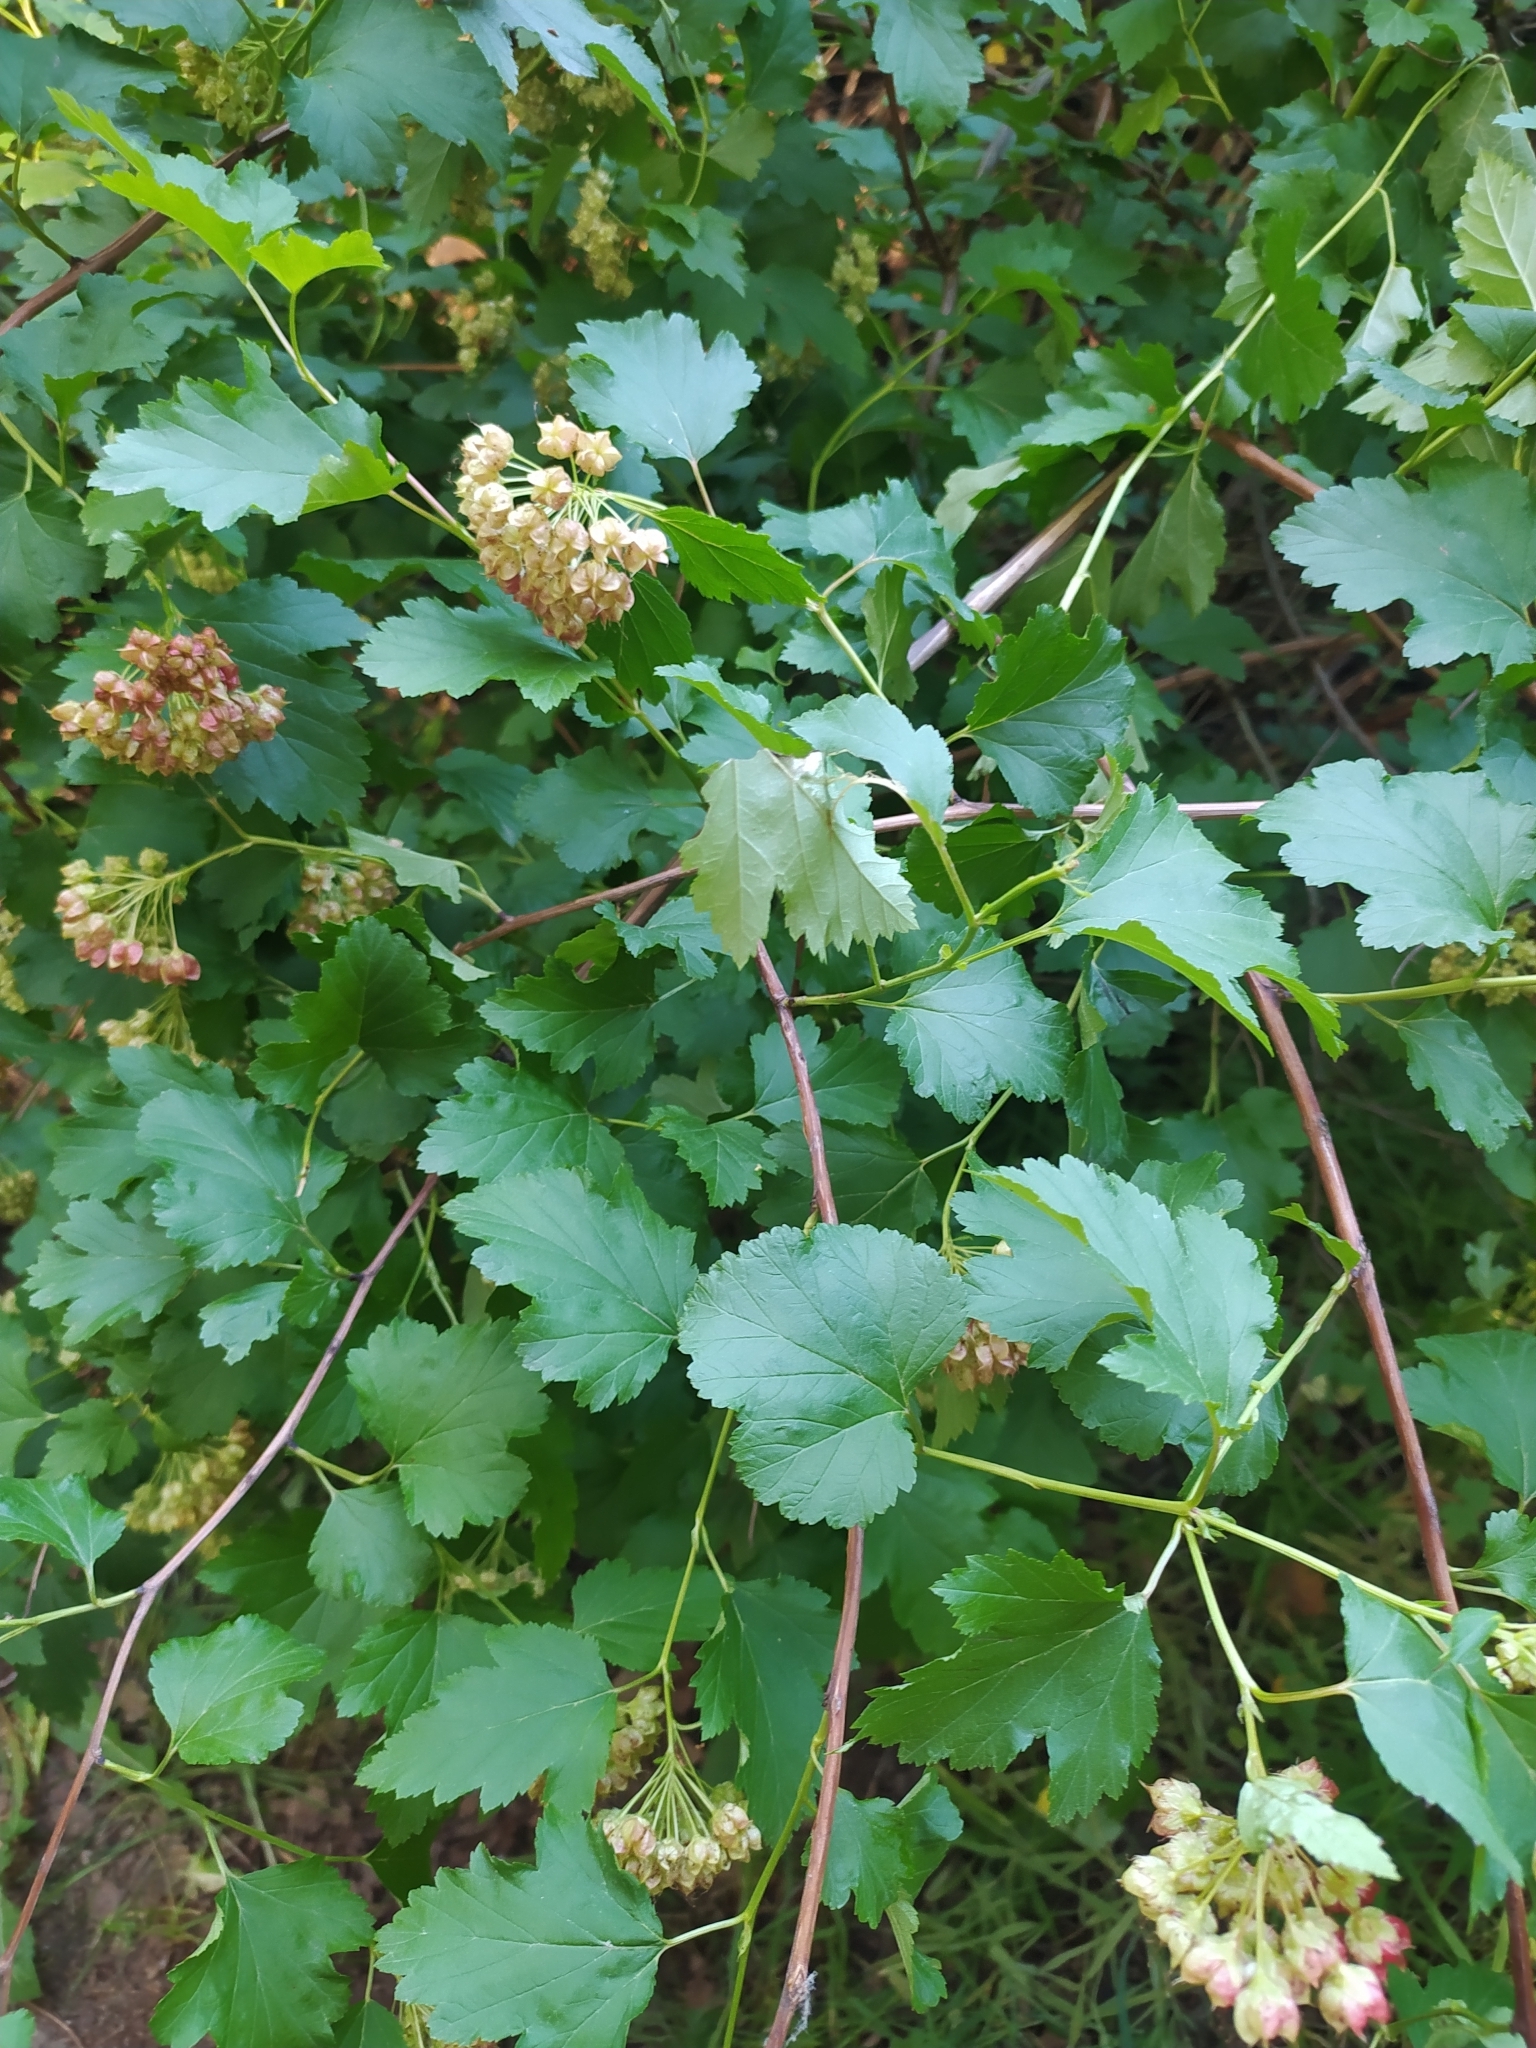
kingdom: Plantae
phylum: Tracheophyta
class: Magnoliopsida
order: Rosales
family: Rosaceae
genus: Physocarpus
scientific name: Physocarpus opulifolius
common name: Ninebark
